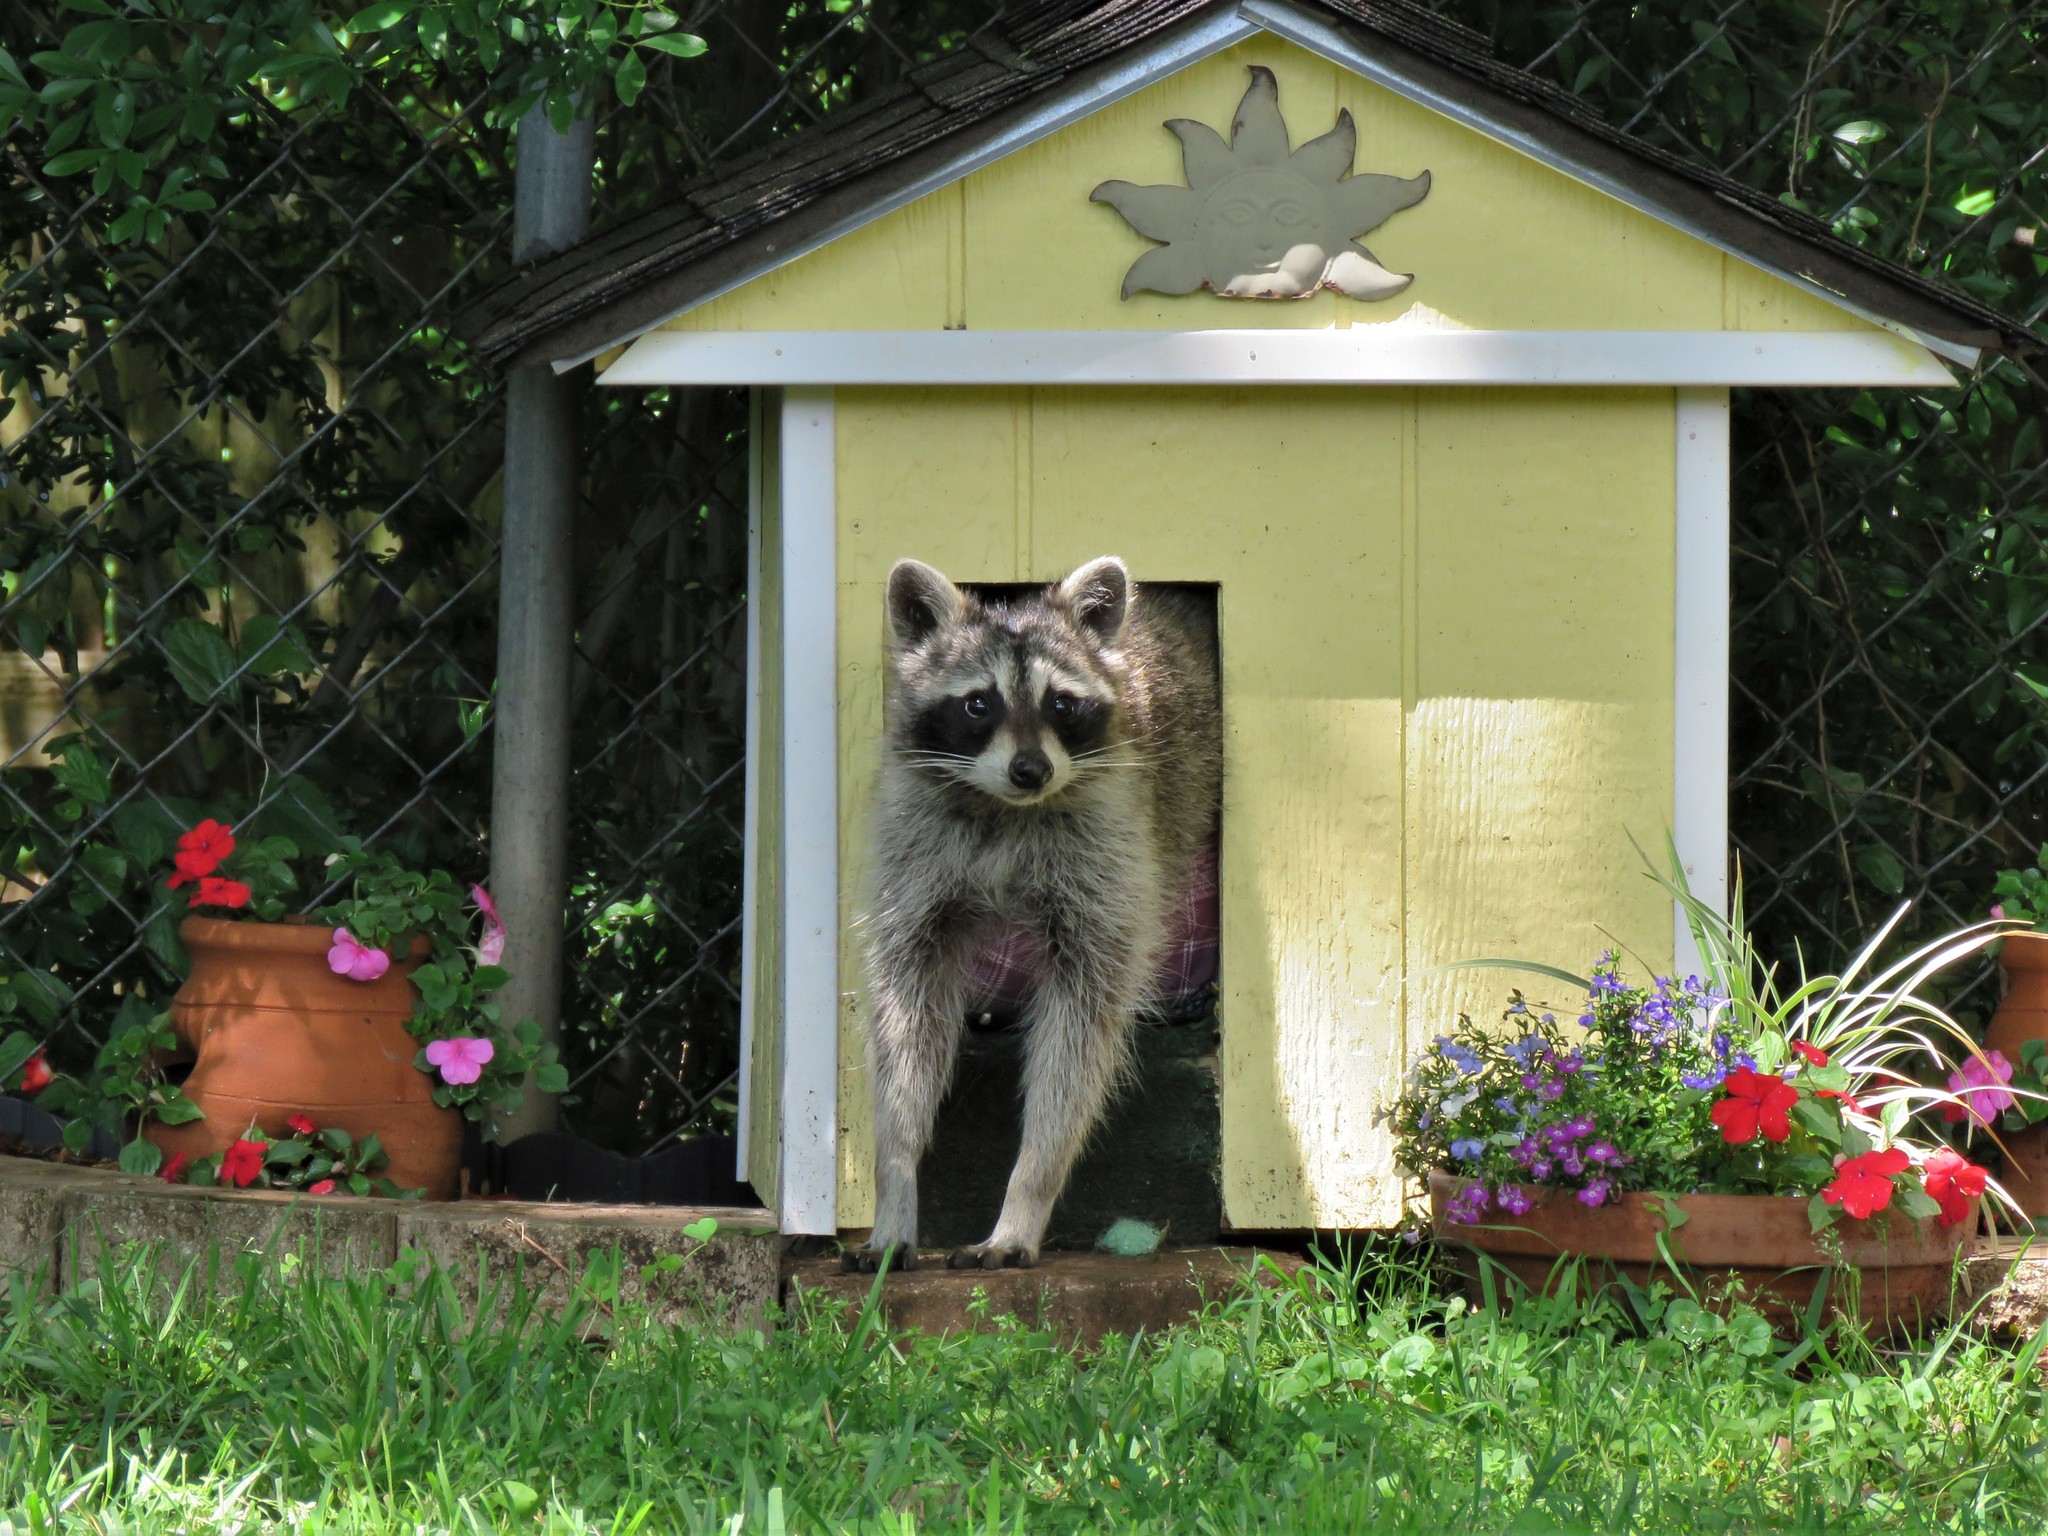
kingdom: Animalia
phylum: Chordata
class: Mammalia
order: Carnivora
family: Procyonidae
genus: Procyon
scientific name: Procyon lotor
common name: Raccoon
